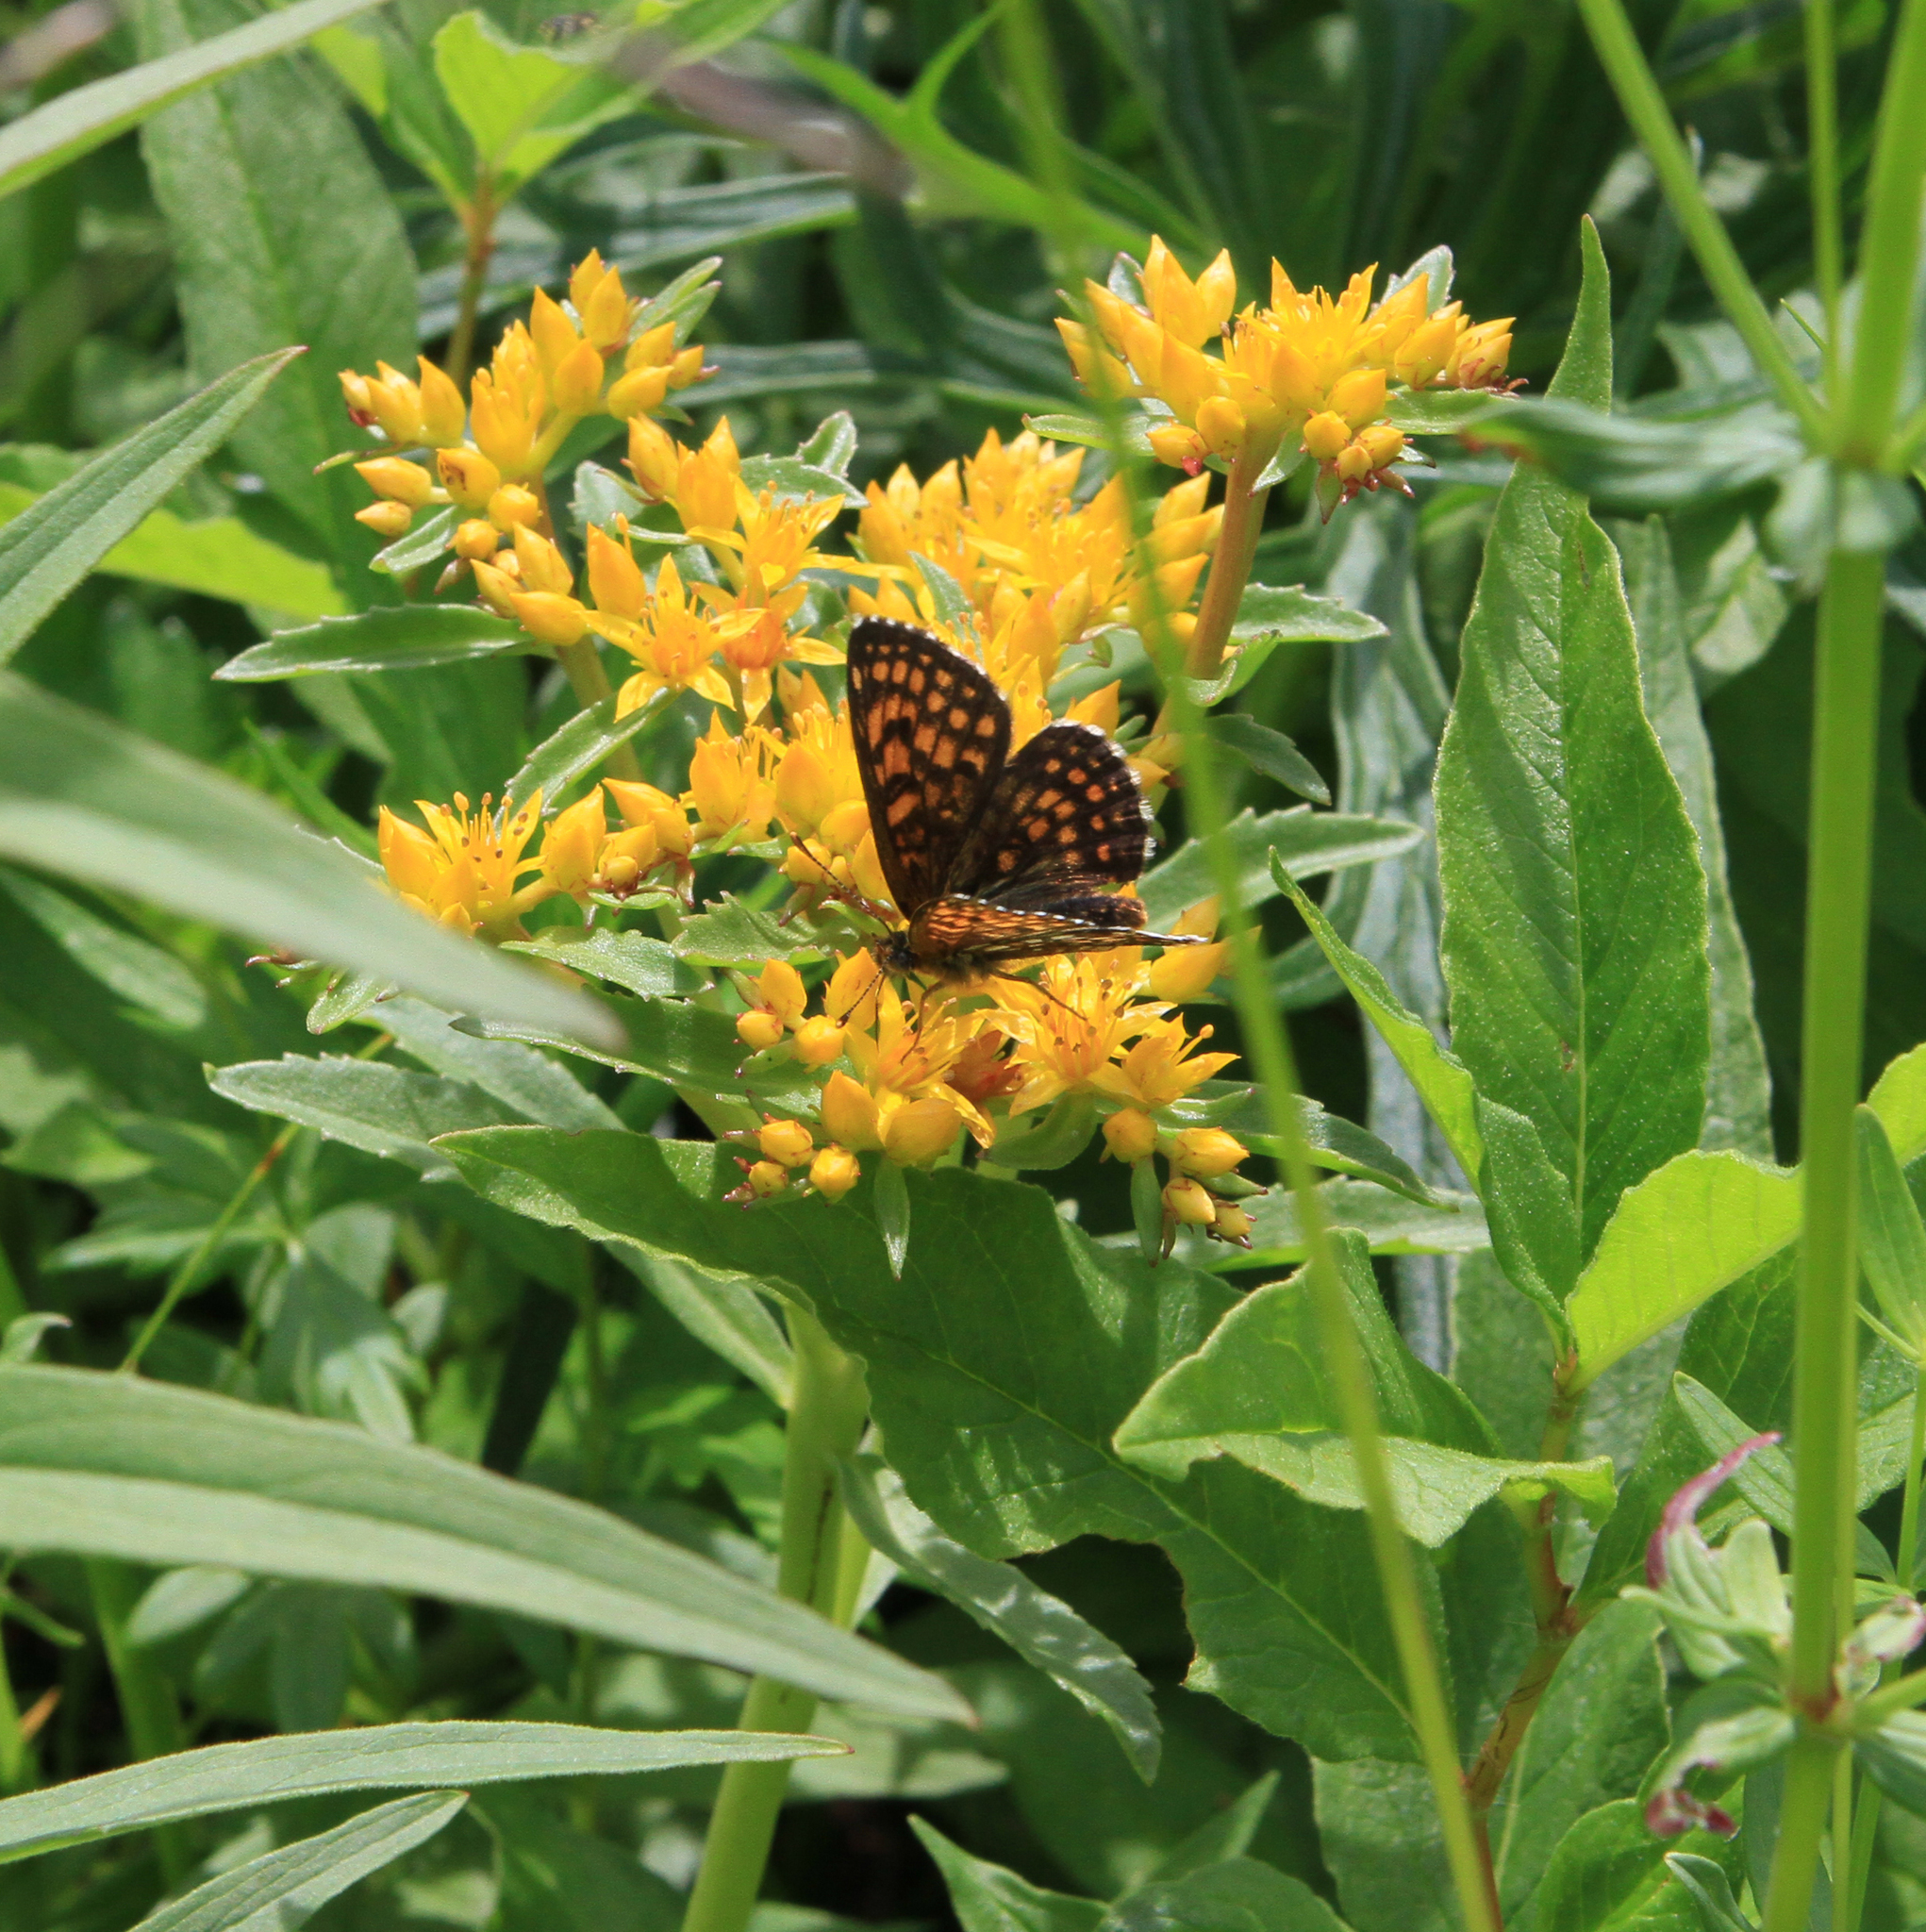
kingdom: Animalia
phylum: Arthropoda
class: Insecta
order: Lepidoptera
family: Nymphalidae
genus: Melitaea
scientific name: Melitaea
